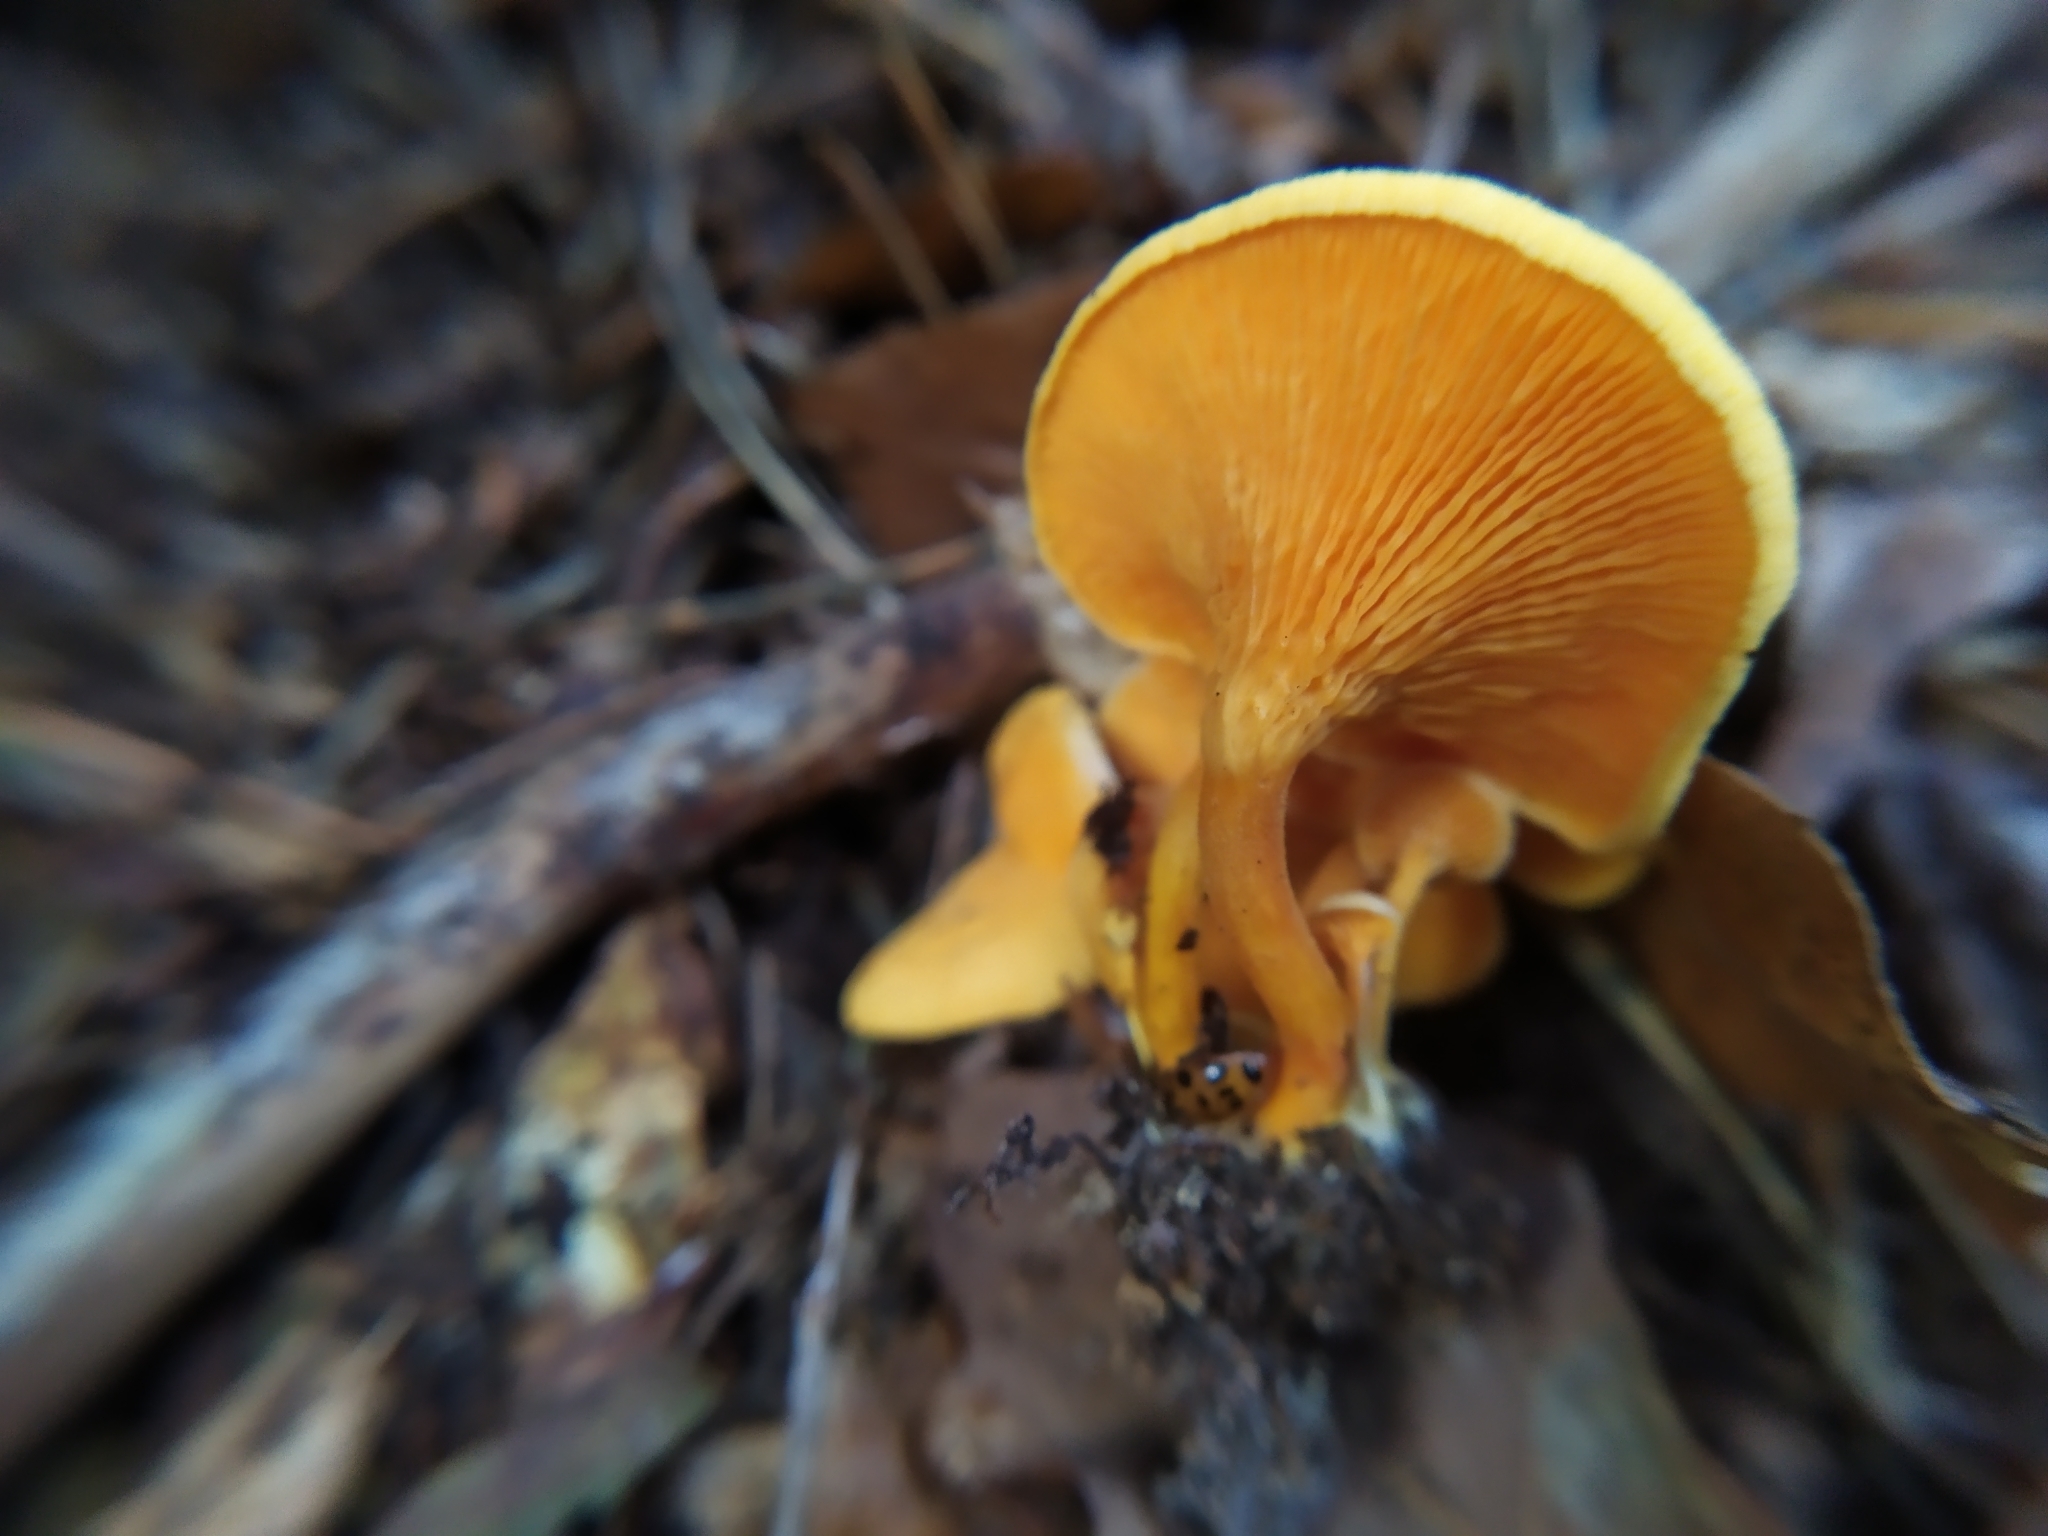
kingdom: Fungi
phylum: Basidiomycota
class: Agaricomycetes
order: Boletales
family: Hygrophoropsidaceae
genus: Hygrophoropsis
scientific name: Hygrophoropsis aurantiaca
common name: False chanterelle
